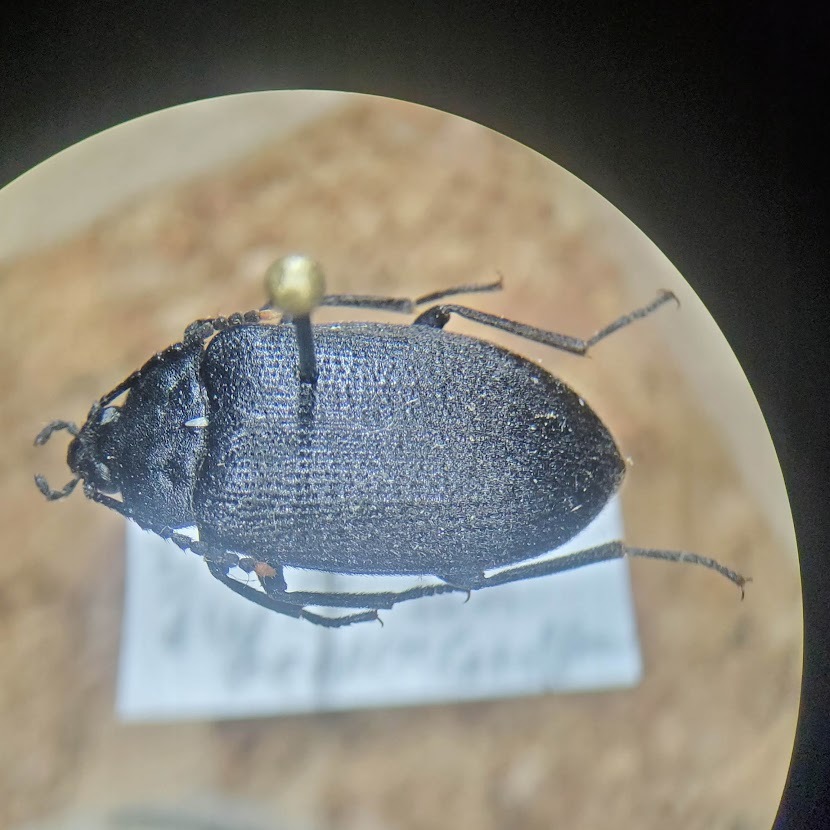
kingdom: Animalia
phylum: Arthropoda
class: Insecta
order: Coleoptera
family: Tetratomidae
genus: Penthe
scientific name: Penthe pimelia
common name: Velvety bark beetle
